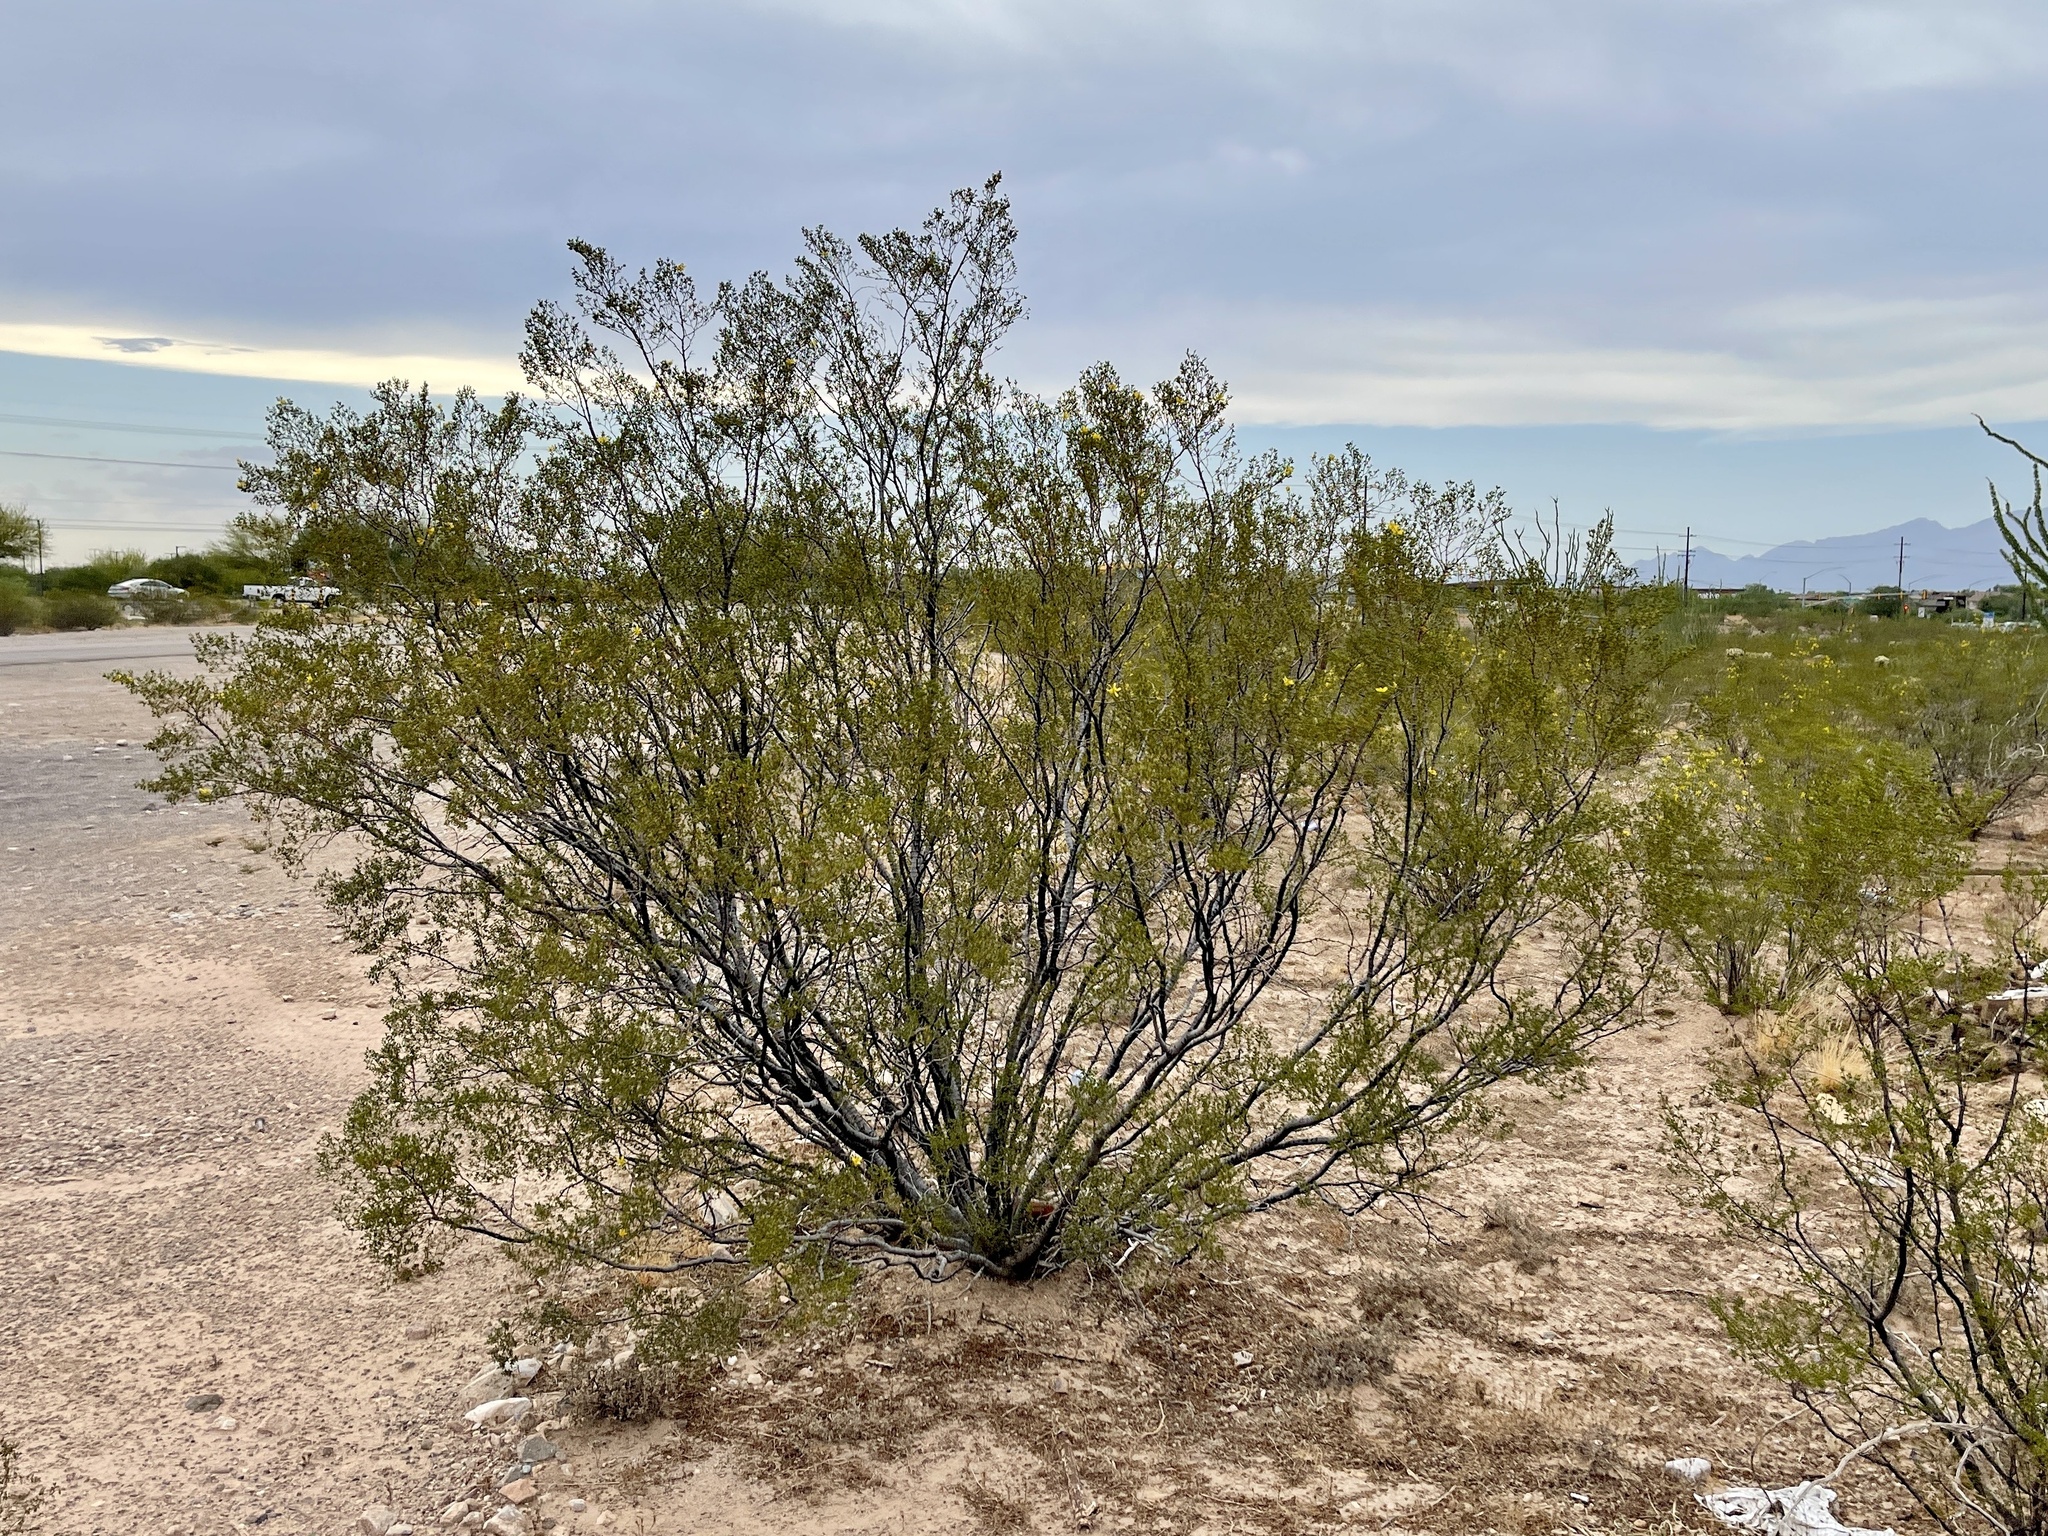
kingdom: Plantae
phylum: Tracheophyta
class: Magnoliopsida
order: Zygophyllales
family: Zygophyllaceae
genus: Larrea
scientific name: Larrea tridentata
